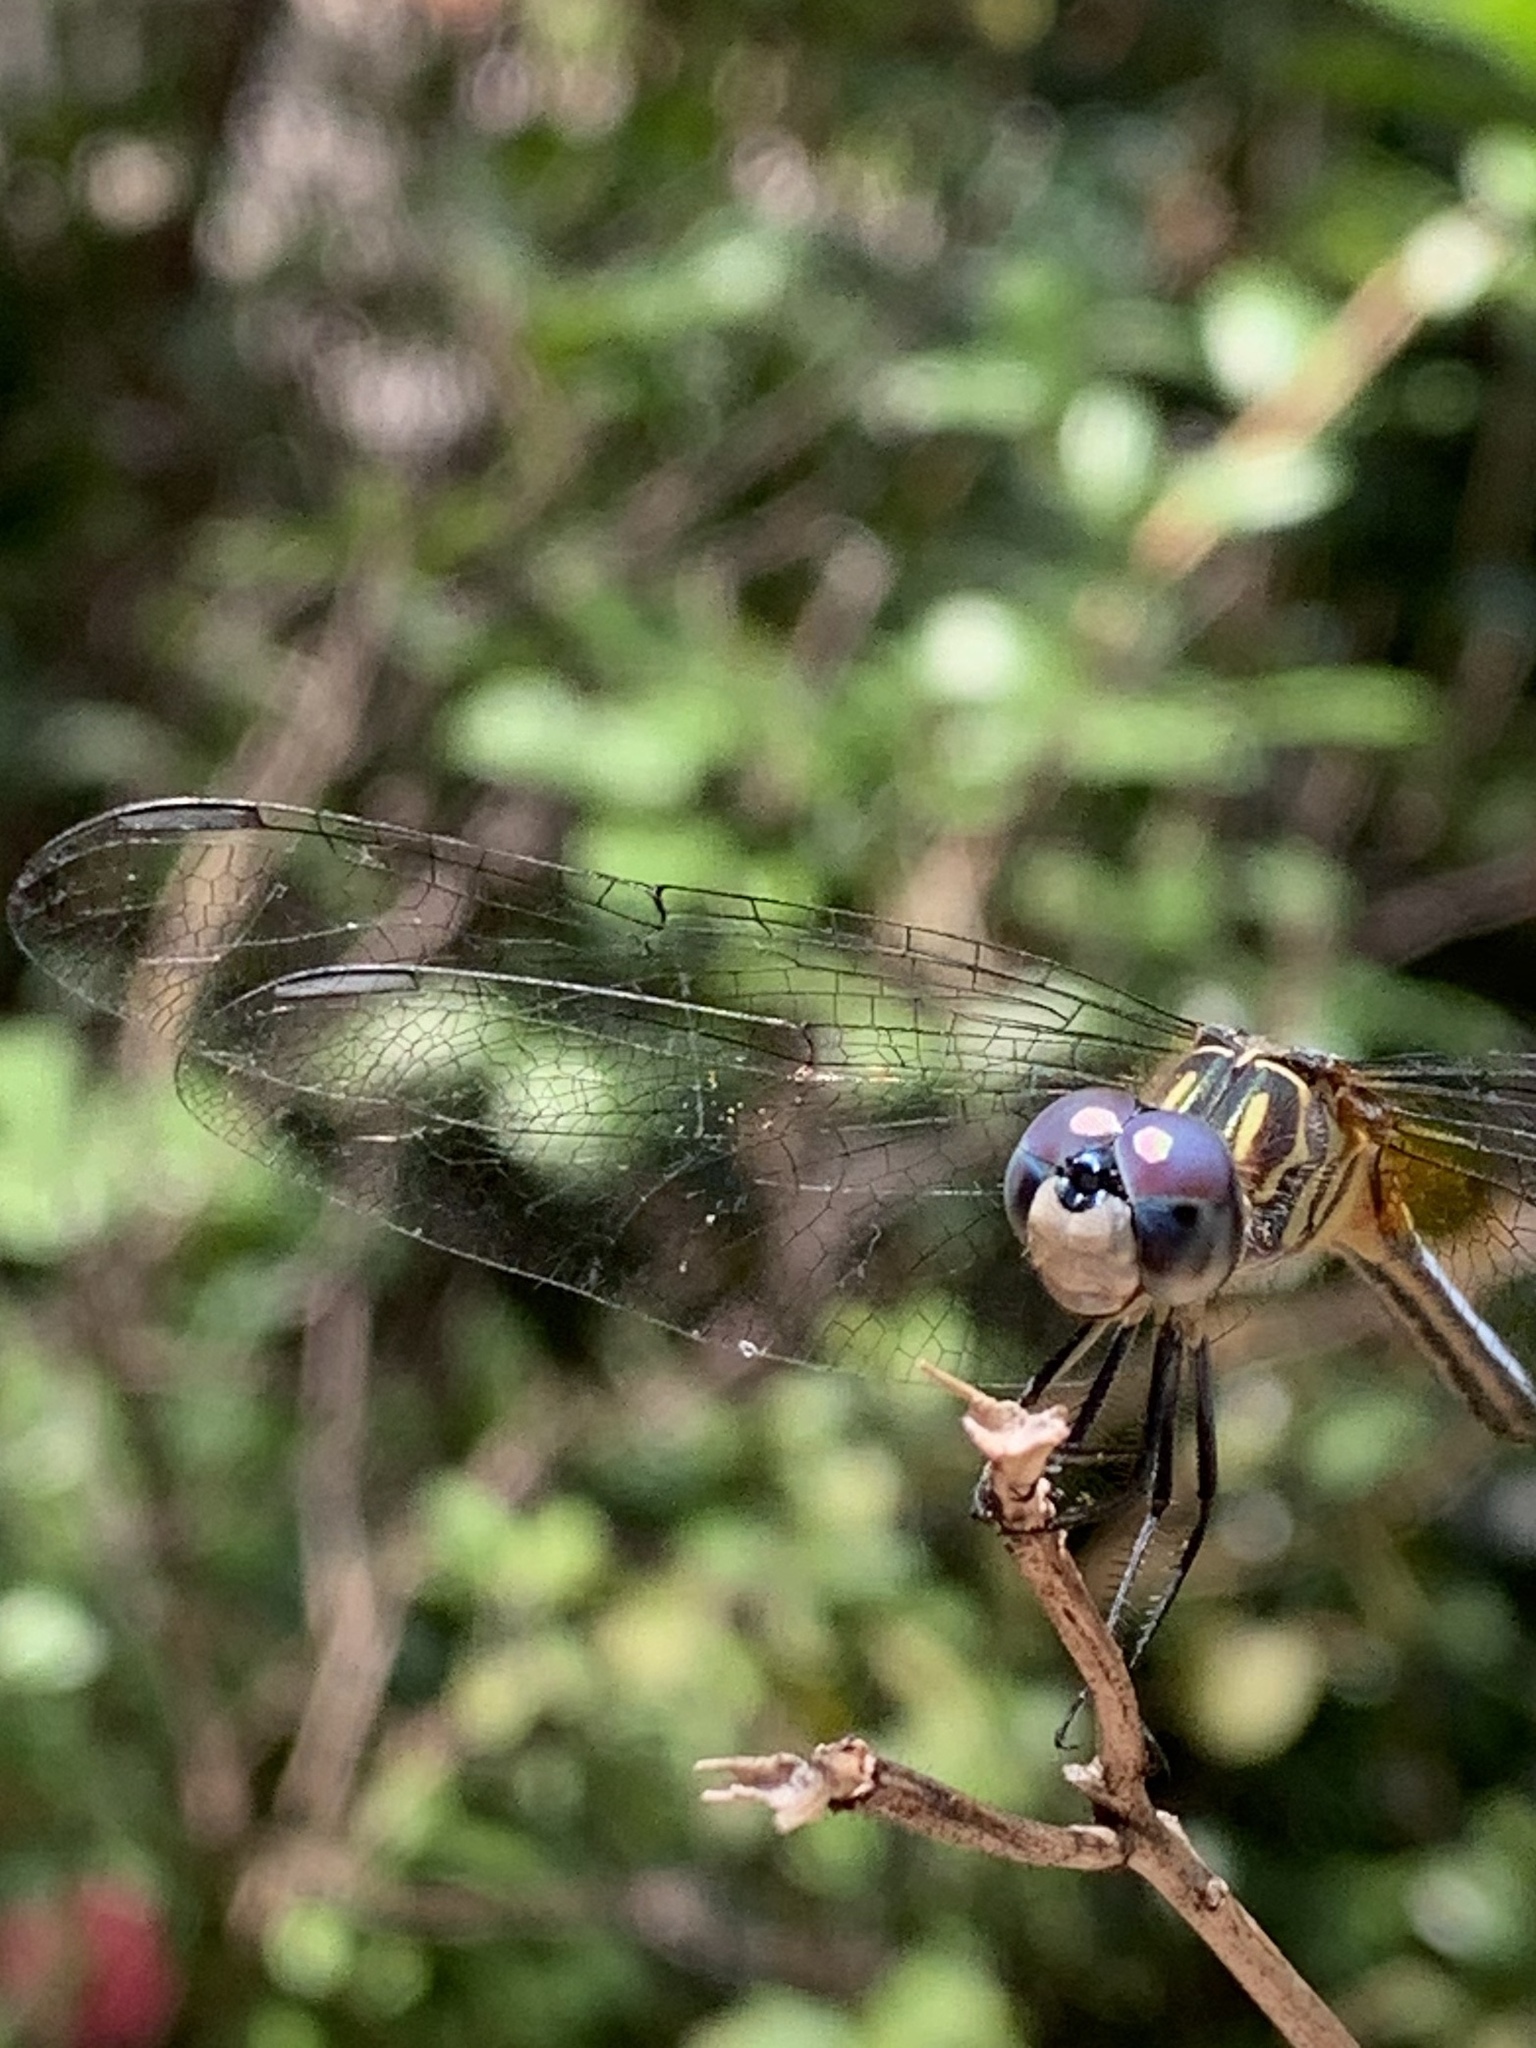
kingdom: Animalia
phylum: Arthropoda
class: Insecta
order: Odonata
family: Libellulidae
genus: Pachydiplax
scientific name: Pachydiplax longipennis
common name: Blue dasher
